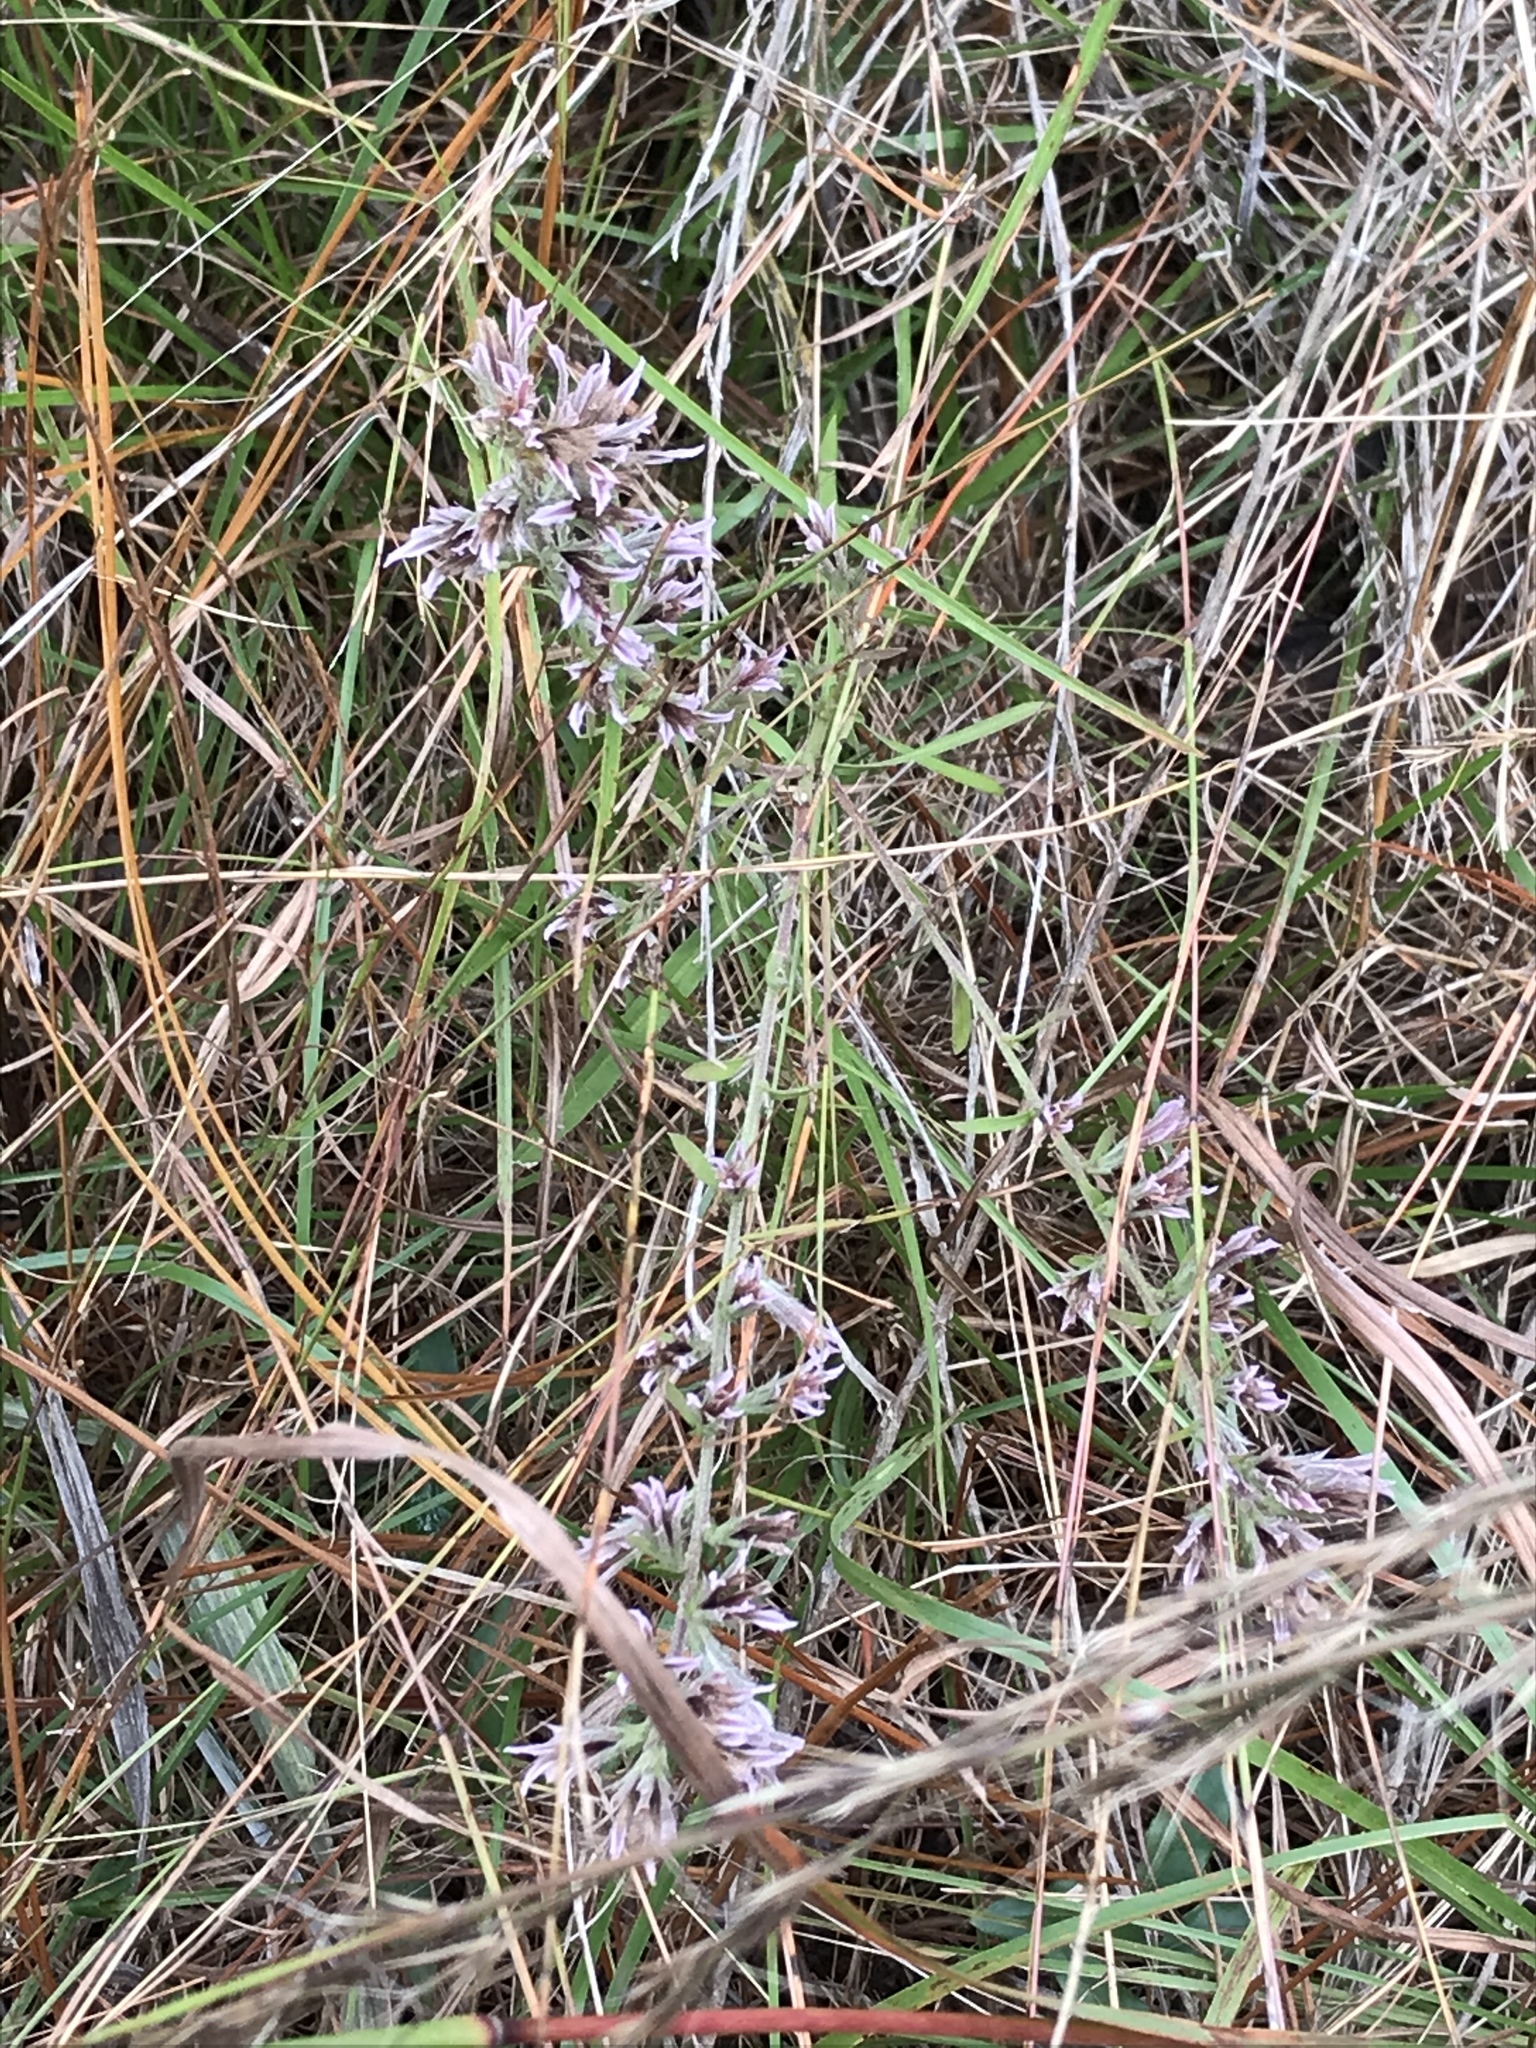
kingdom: Plantae
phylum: Tracheophyta
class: Magnoliopsida
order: Asterales
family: Asteraceae
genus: Liatris
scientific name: Liatris hesperelegans
